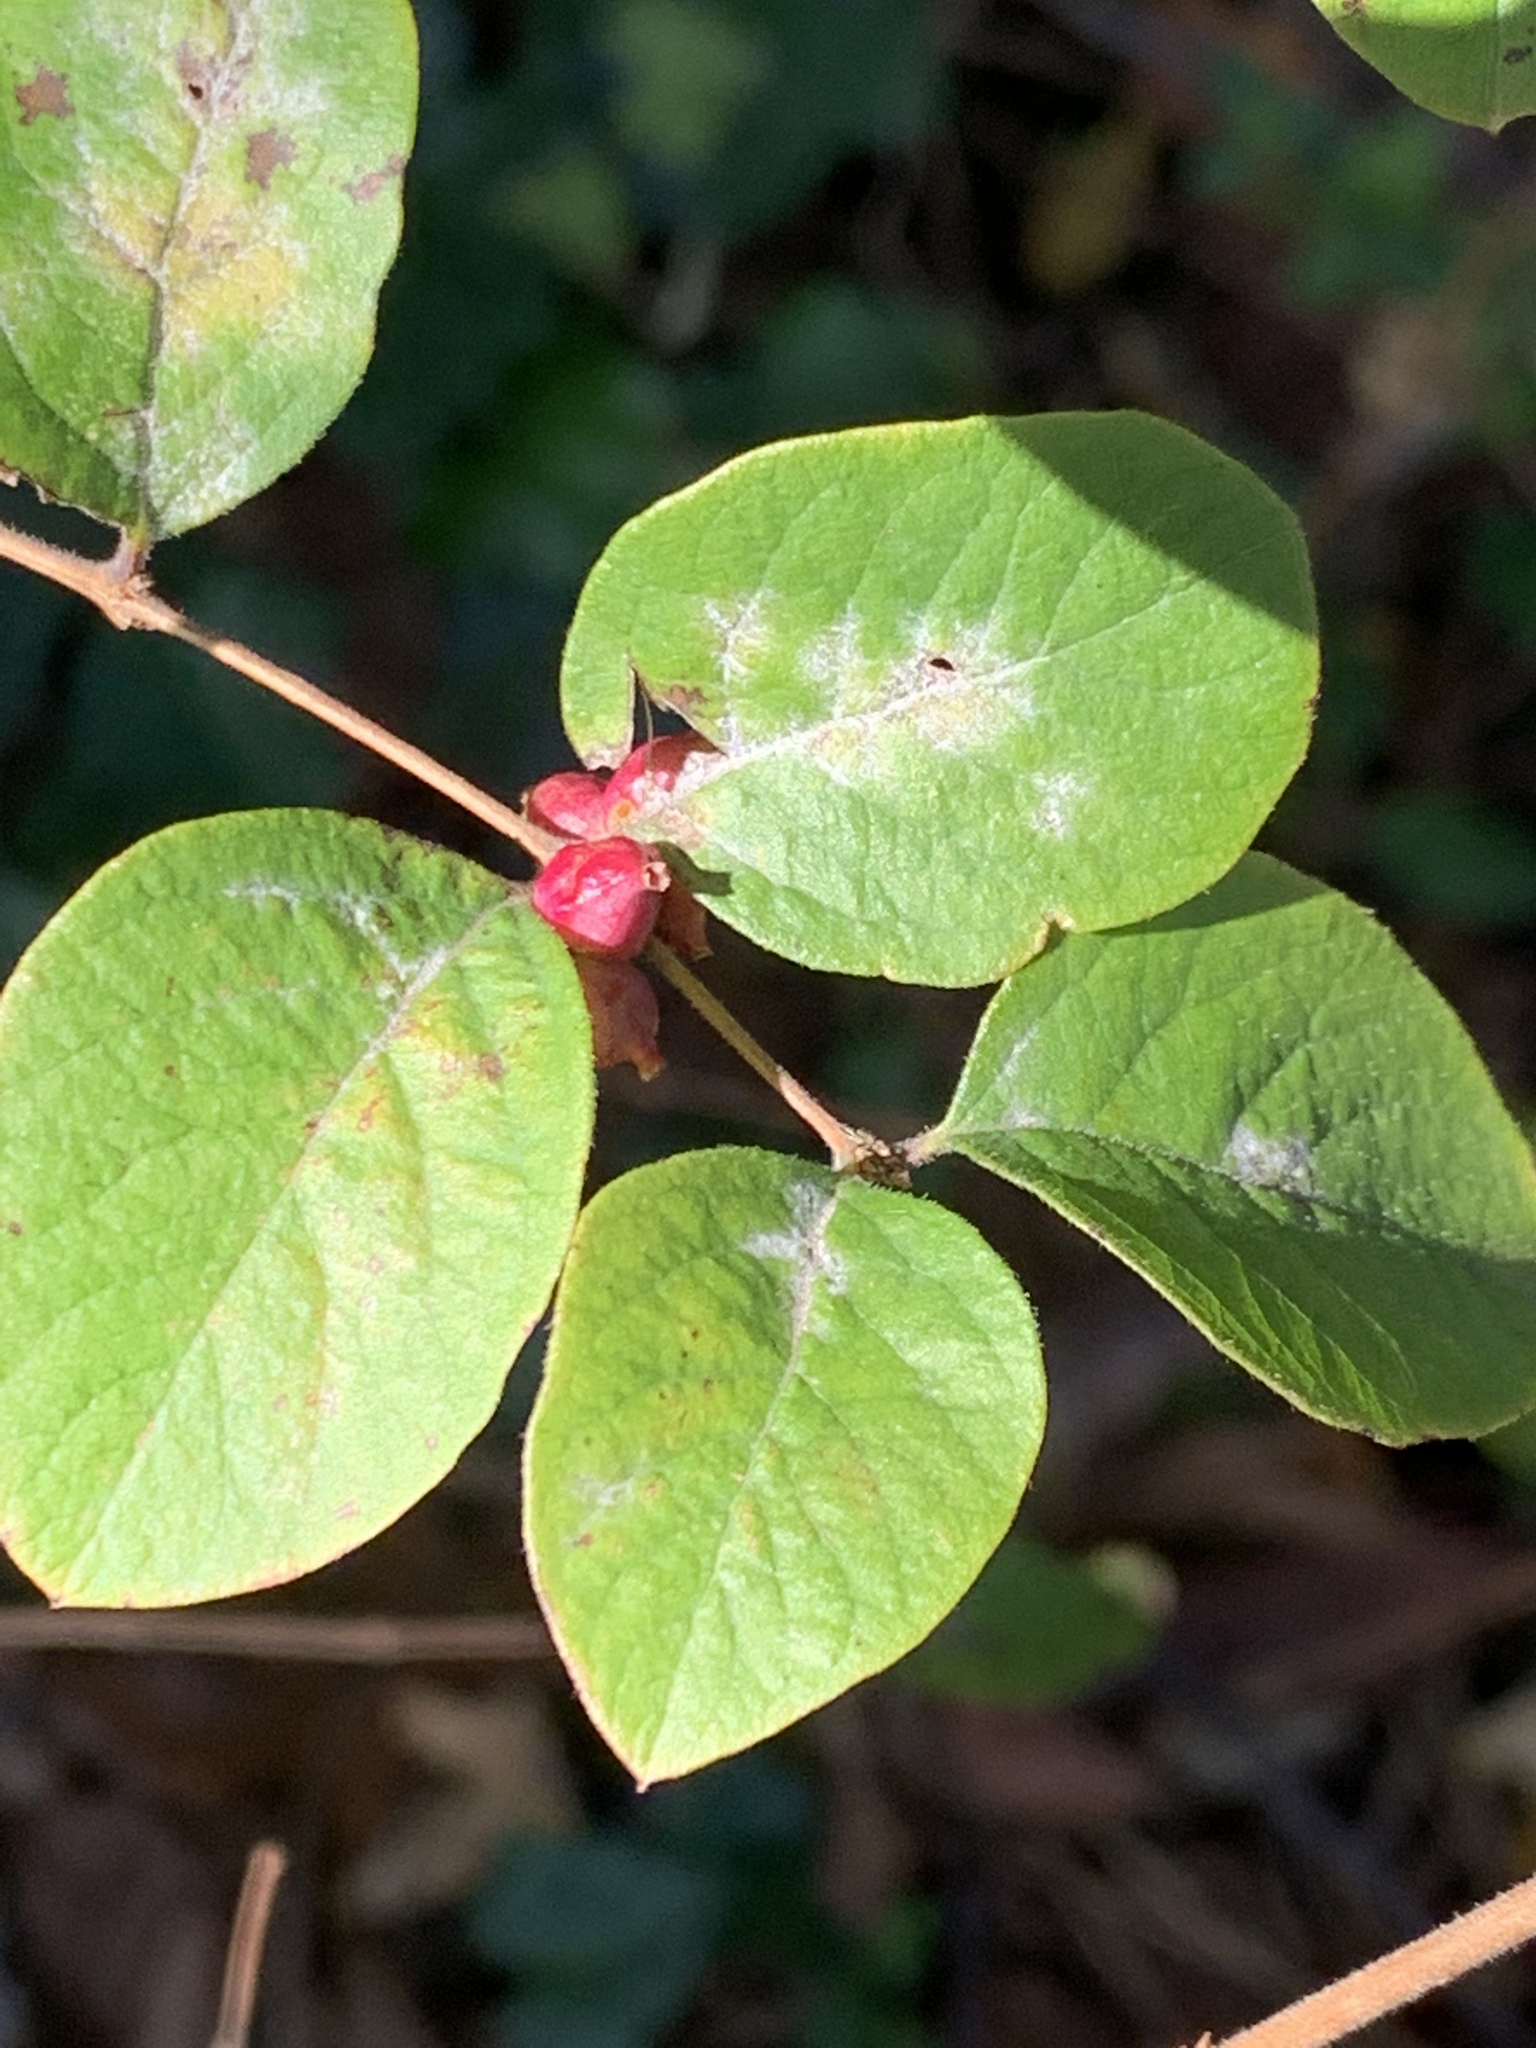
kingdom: Plantae
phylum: Tracheophyta
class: Magnoliopsida
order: Dipsacales
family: Caprifoliaceae
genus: Symphoricarpos
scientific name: Symphoricarpos orbiculatus
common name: Coralberry
